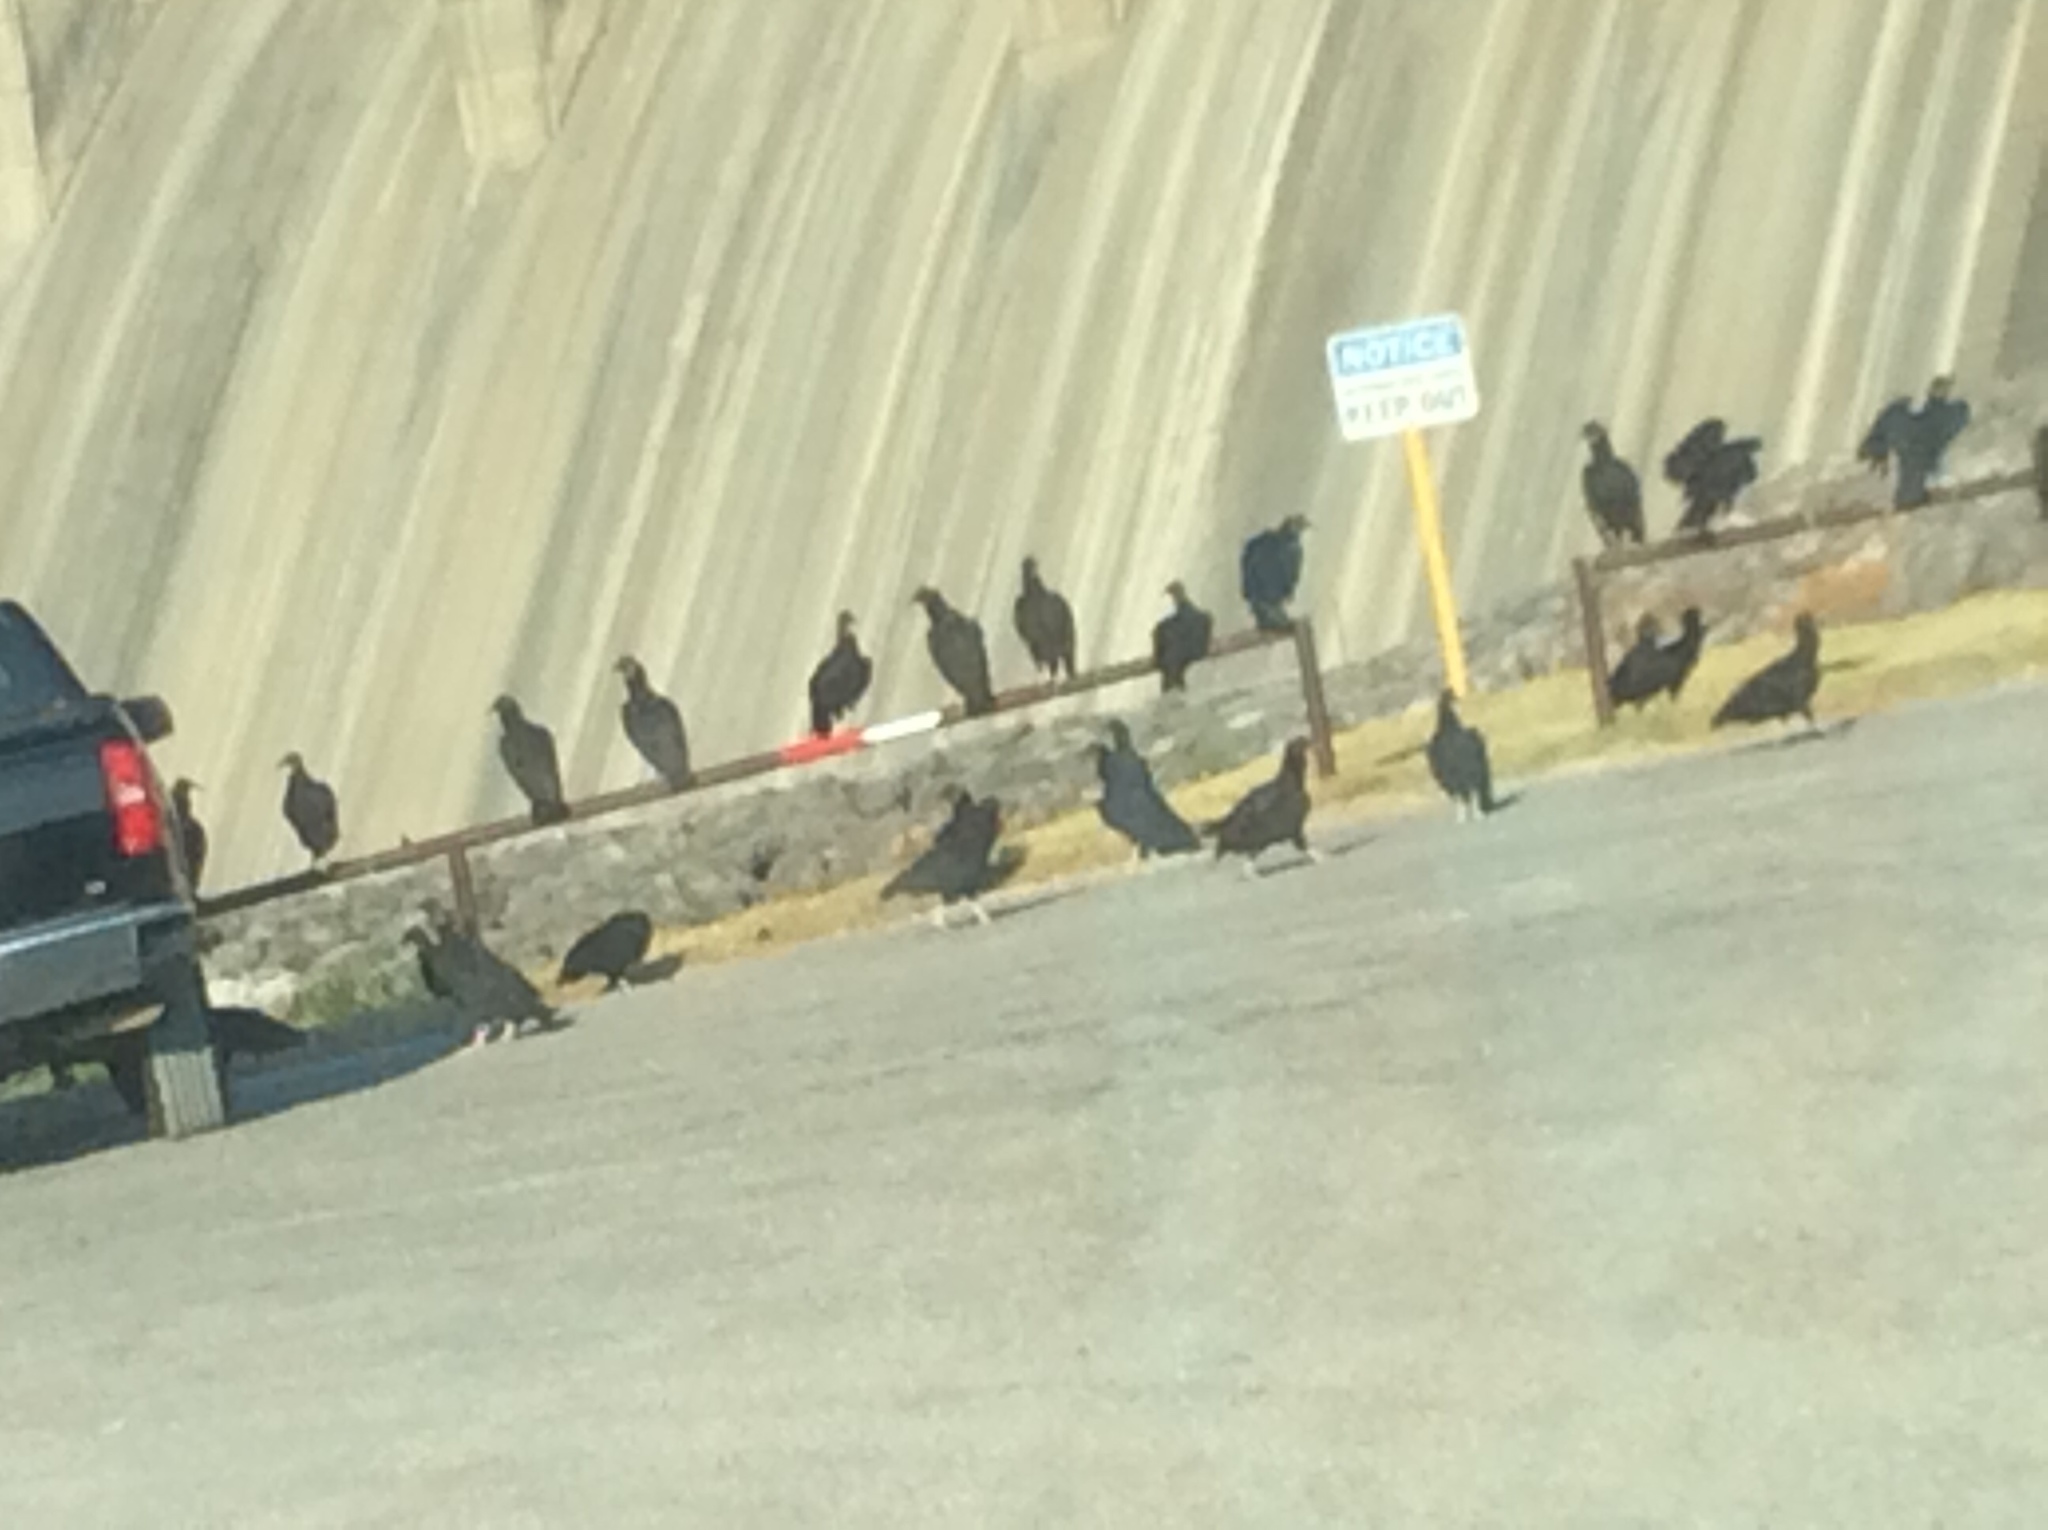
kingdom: Animalia
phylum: Chordata
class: Aves
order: Accipitriformes
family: Cathartidae
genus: Coragyps
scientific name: Coragyps atratus
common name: Black vulture
